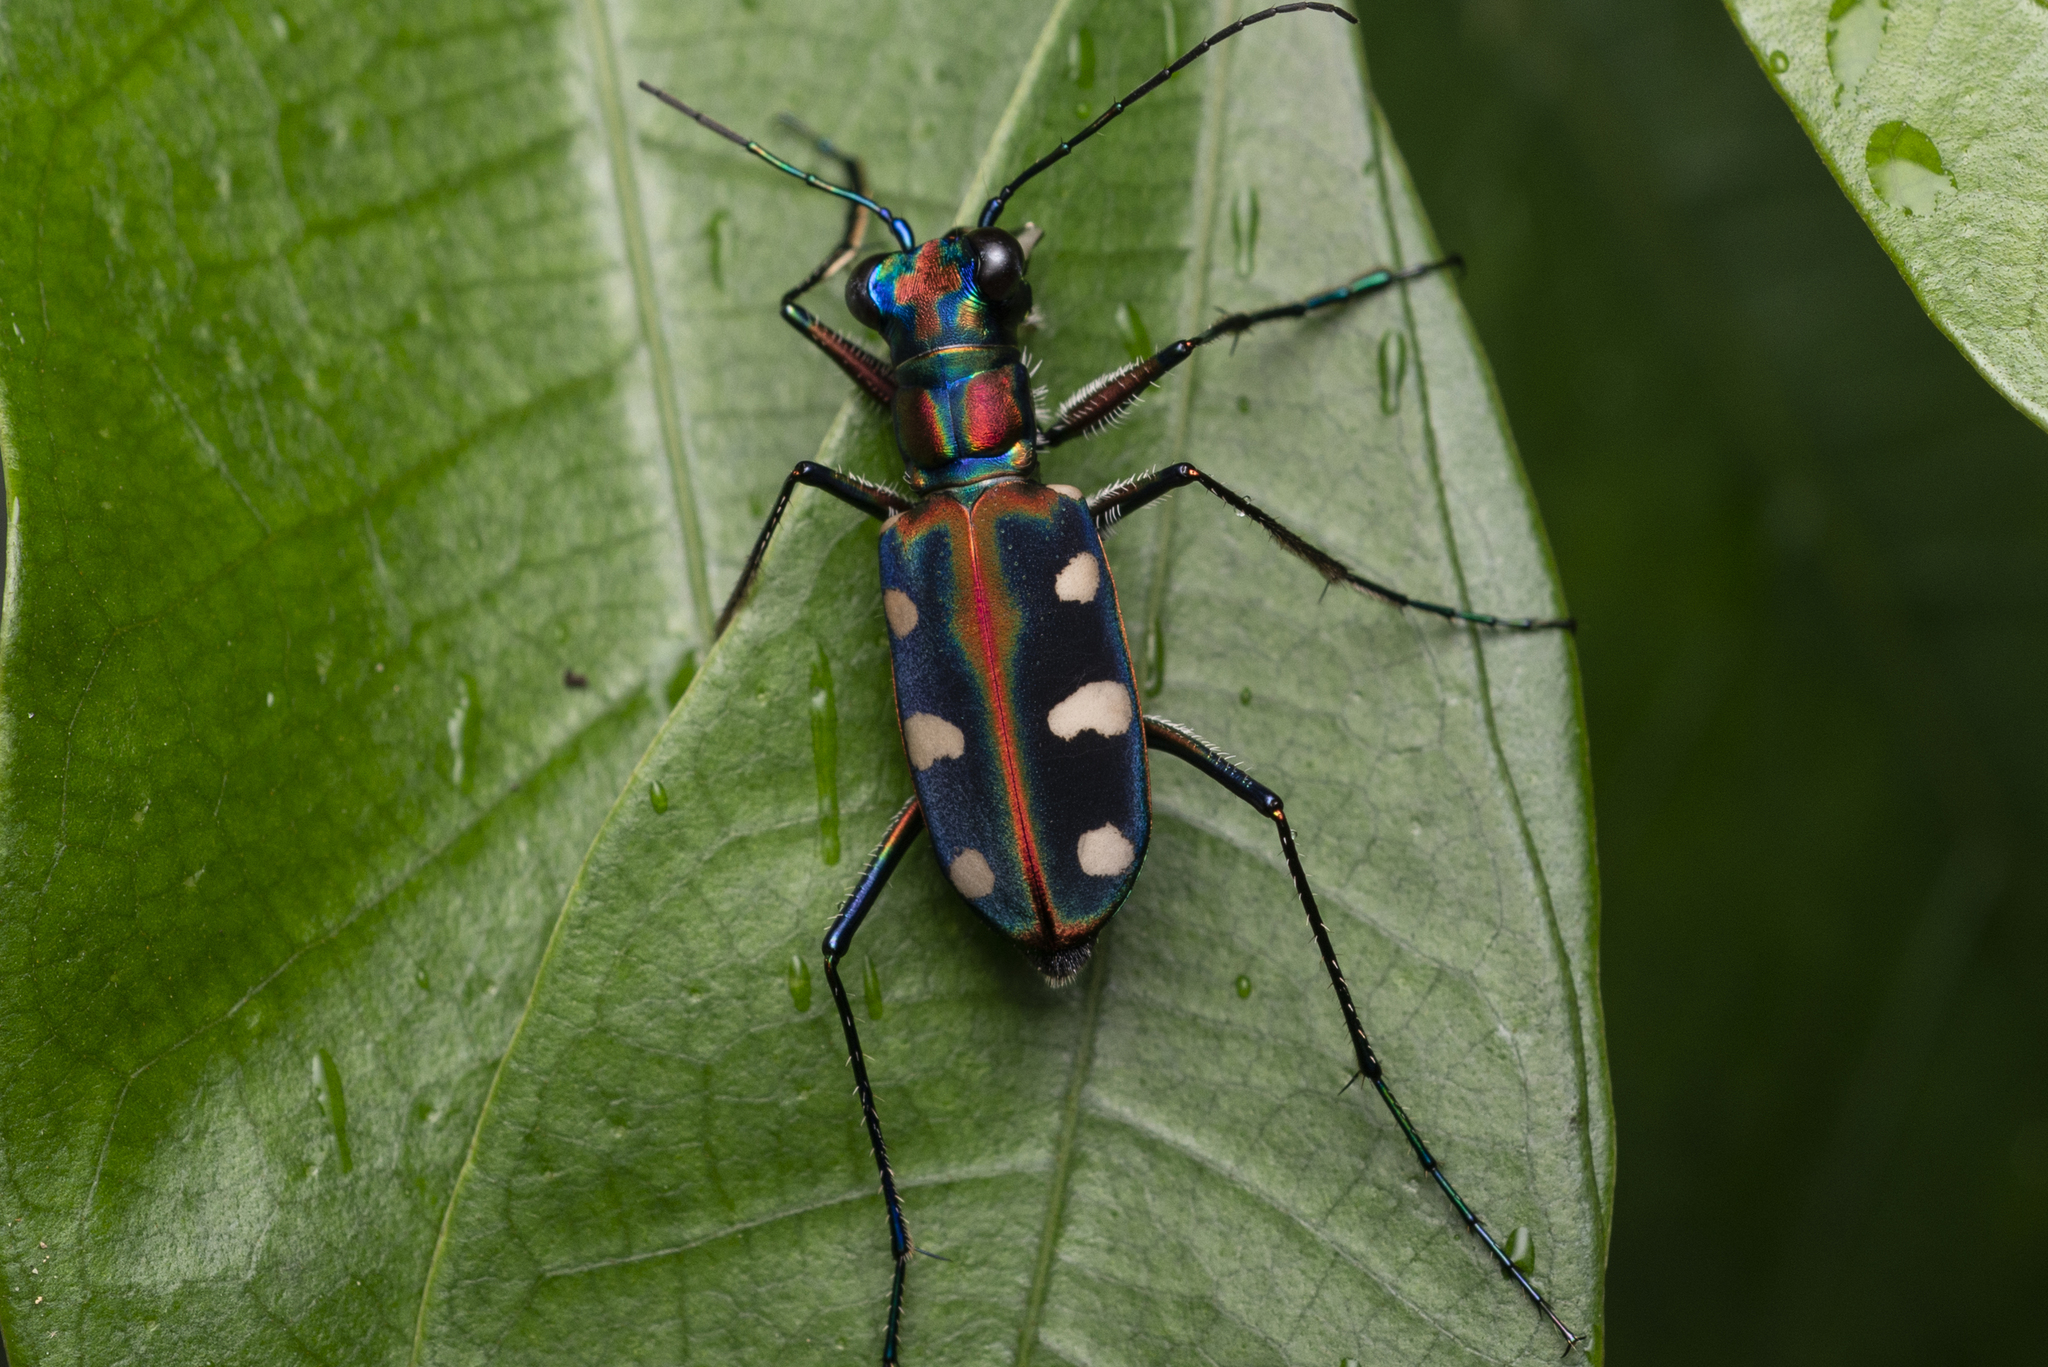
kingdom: Animalia
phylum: Arthropoda
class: Insecta
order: Coleoptera
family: Carabidae
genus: Cicindela
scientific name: Cicindela juxtata
